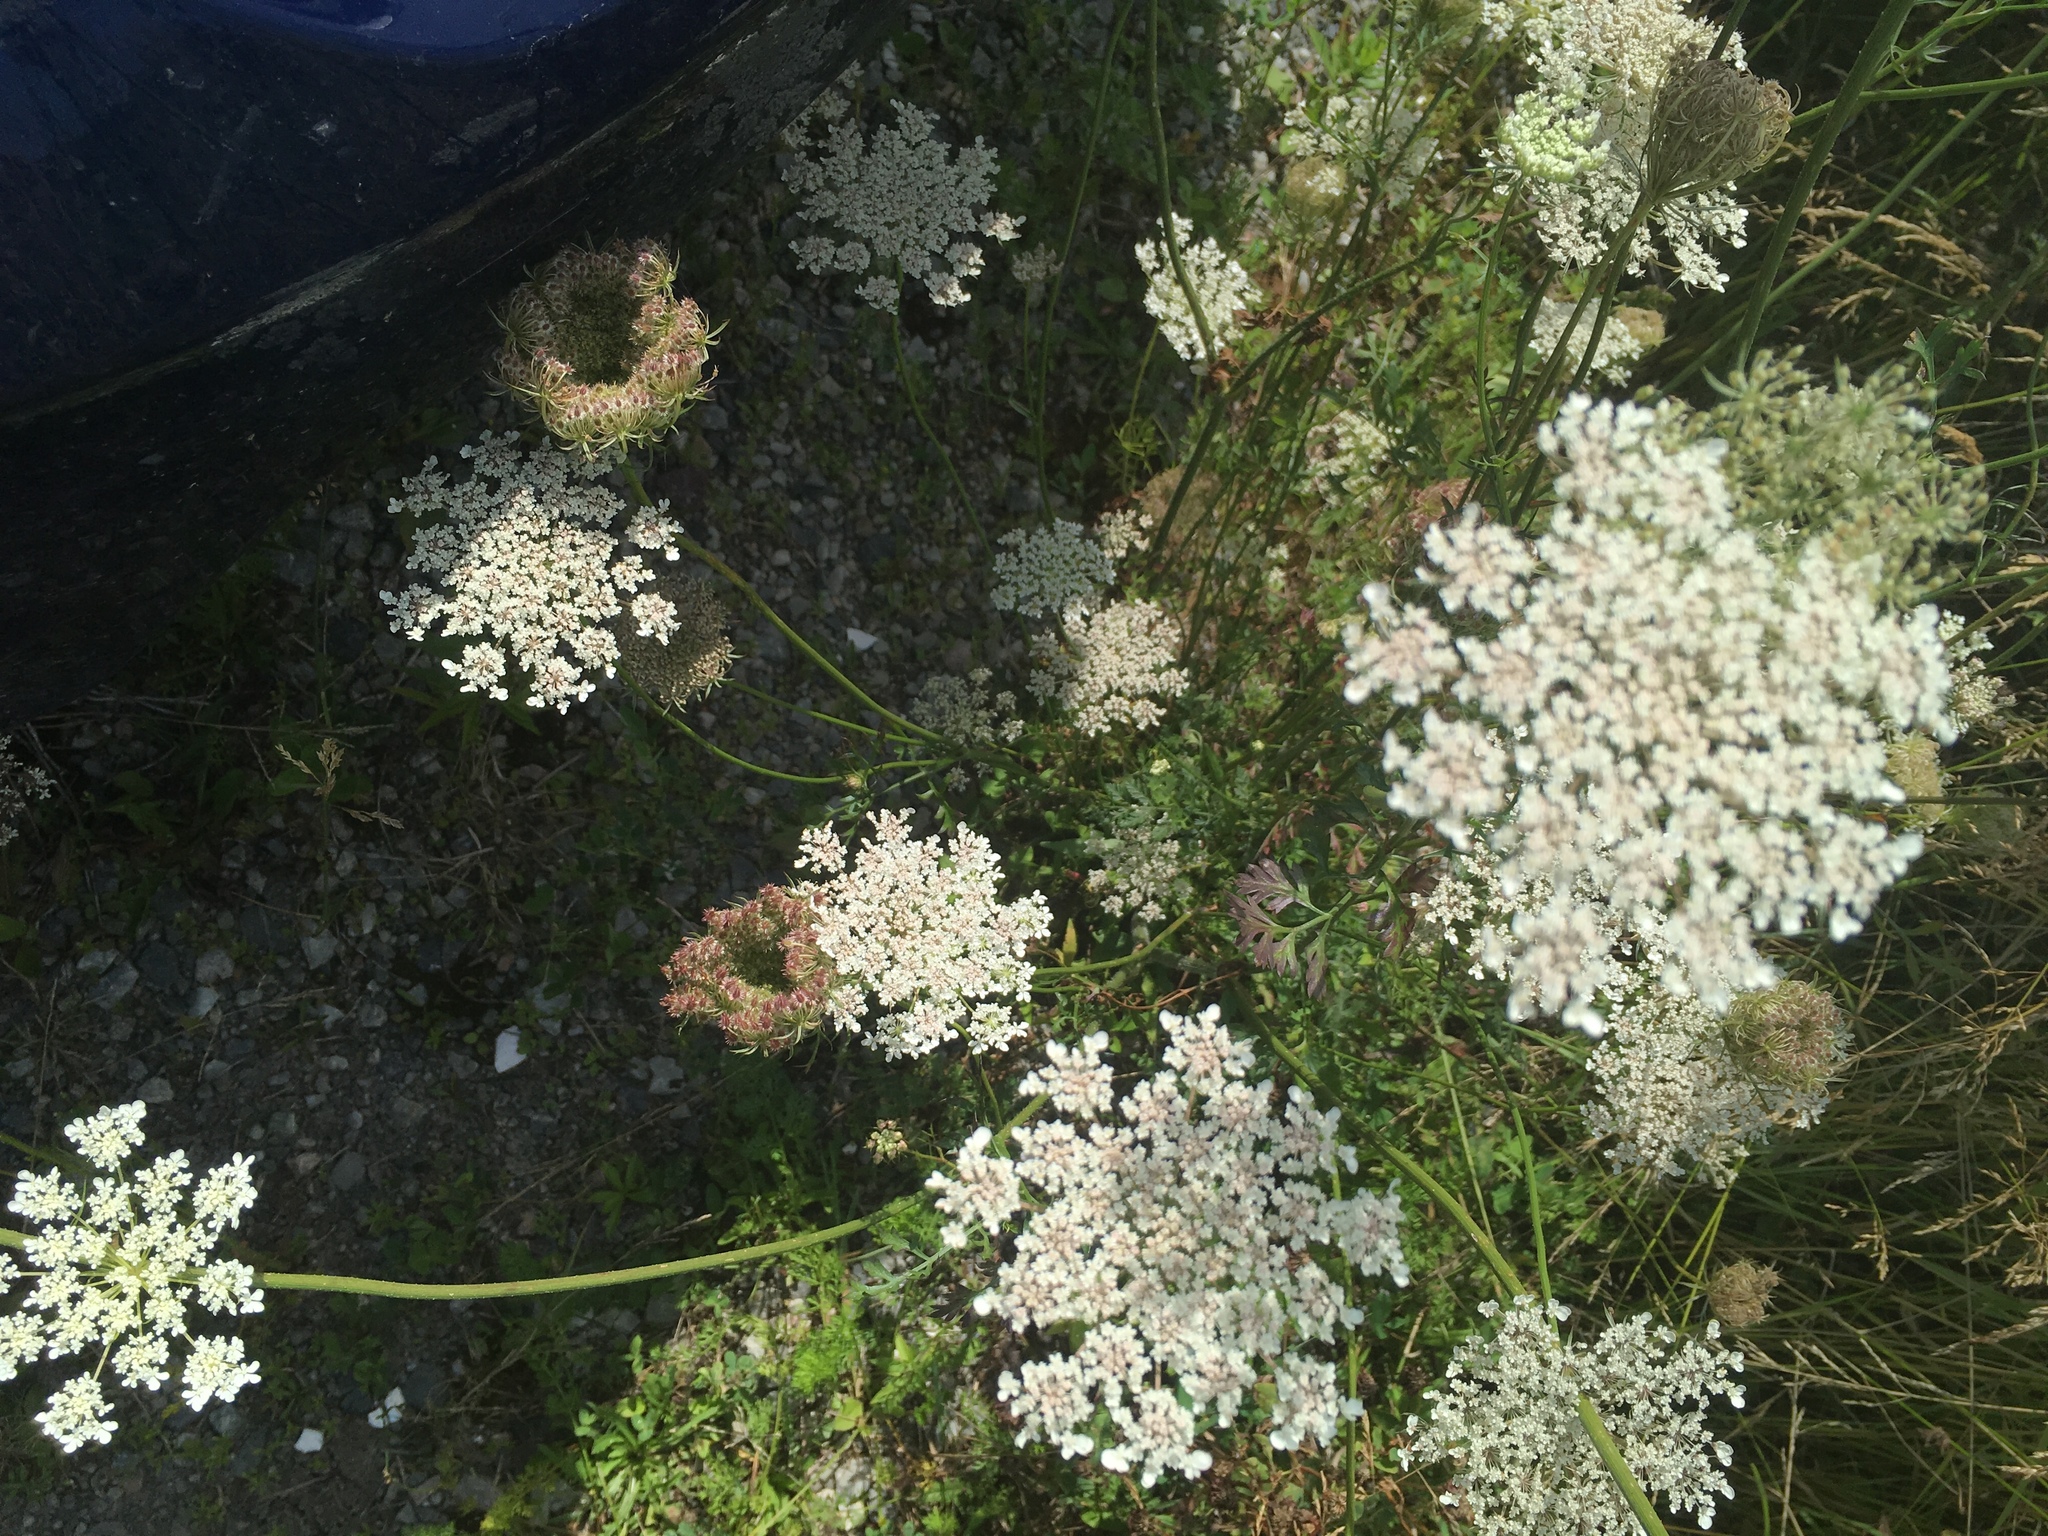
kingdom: Plantae
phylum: Tracheophyta
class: Magnoliopsida
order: Apiales
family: Apiaceae
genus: Daucus
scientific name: Daucus carota
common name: Wild carrot
